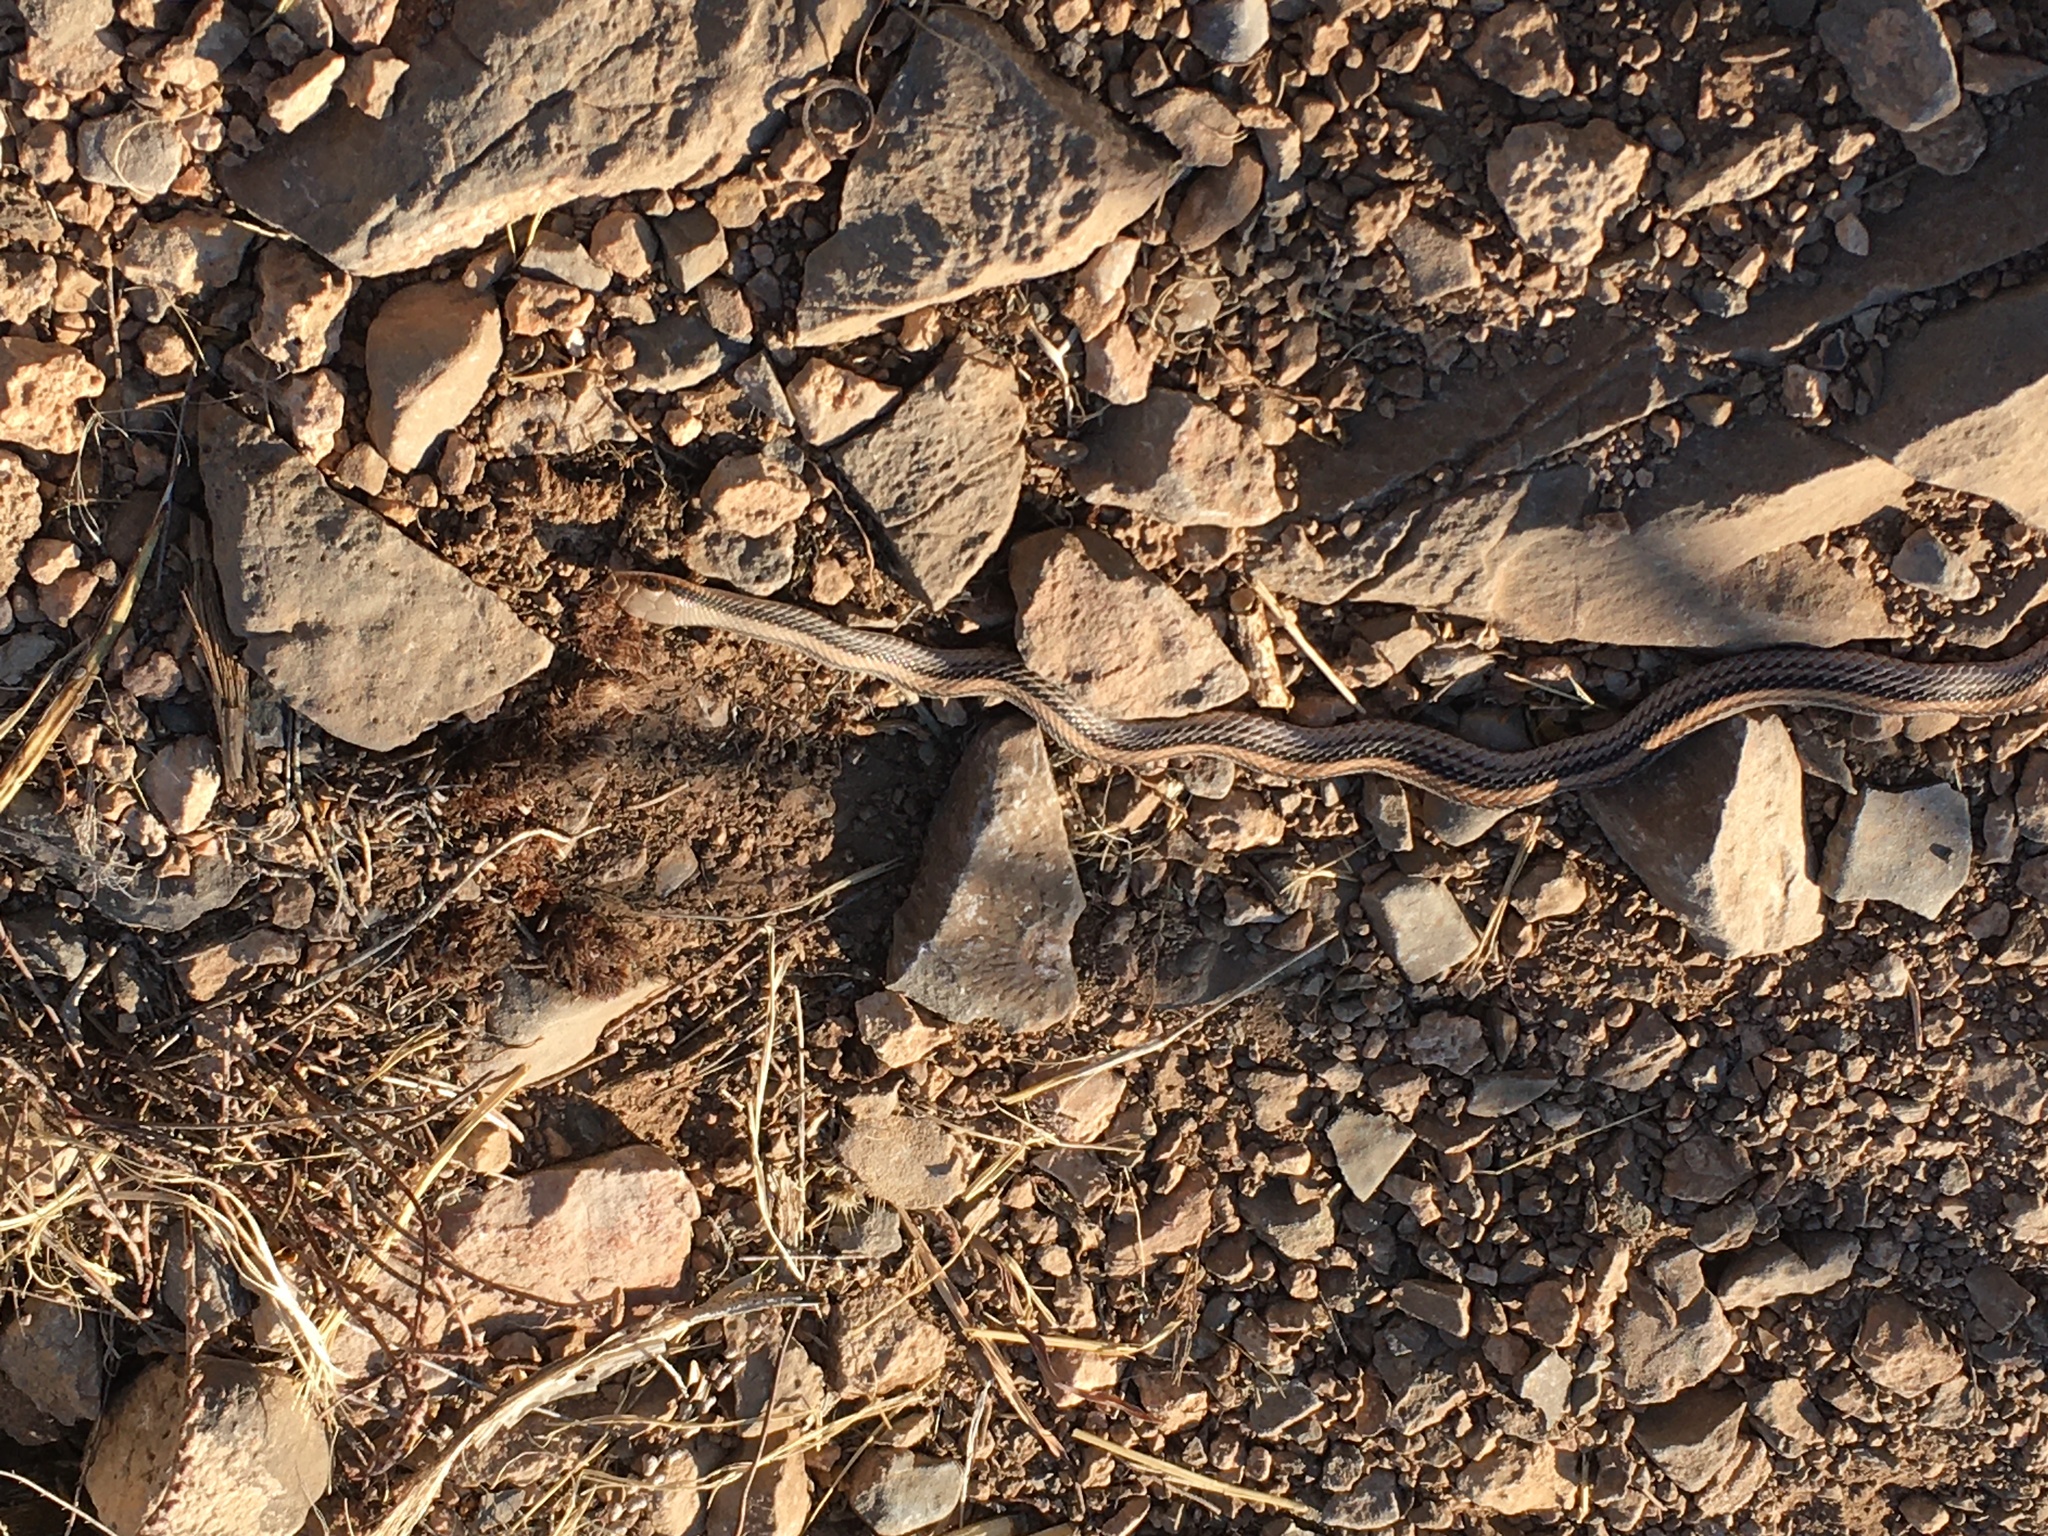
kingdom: Animalia
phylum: Chordata
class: Squamata
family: Colubridae
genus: Salvadora
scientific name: Salvadora deserticola
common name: Big bend patchnose snake
